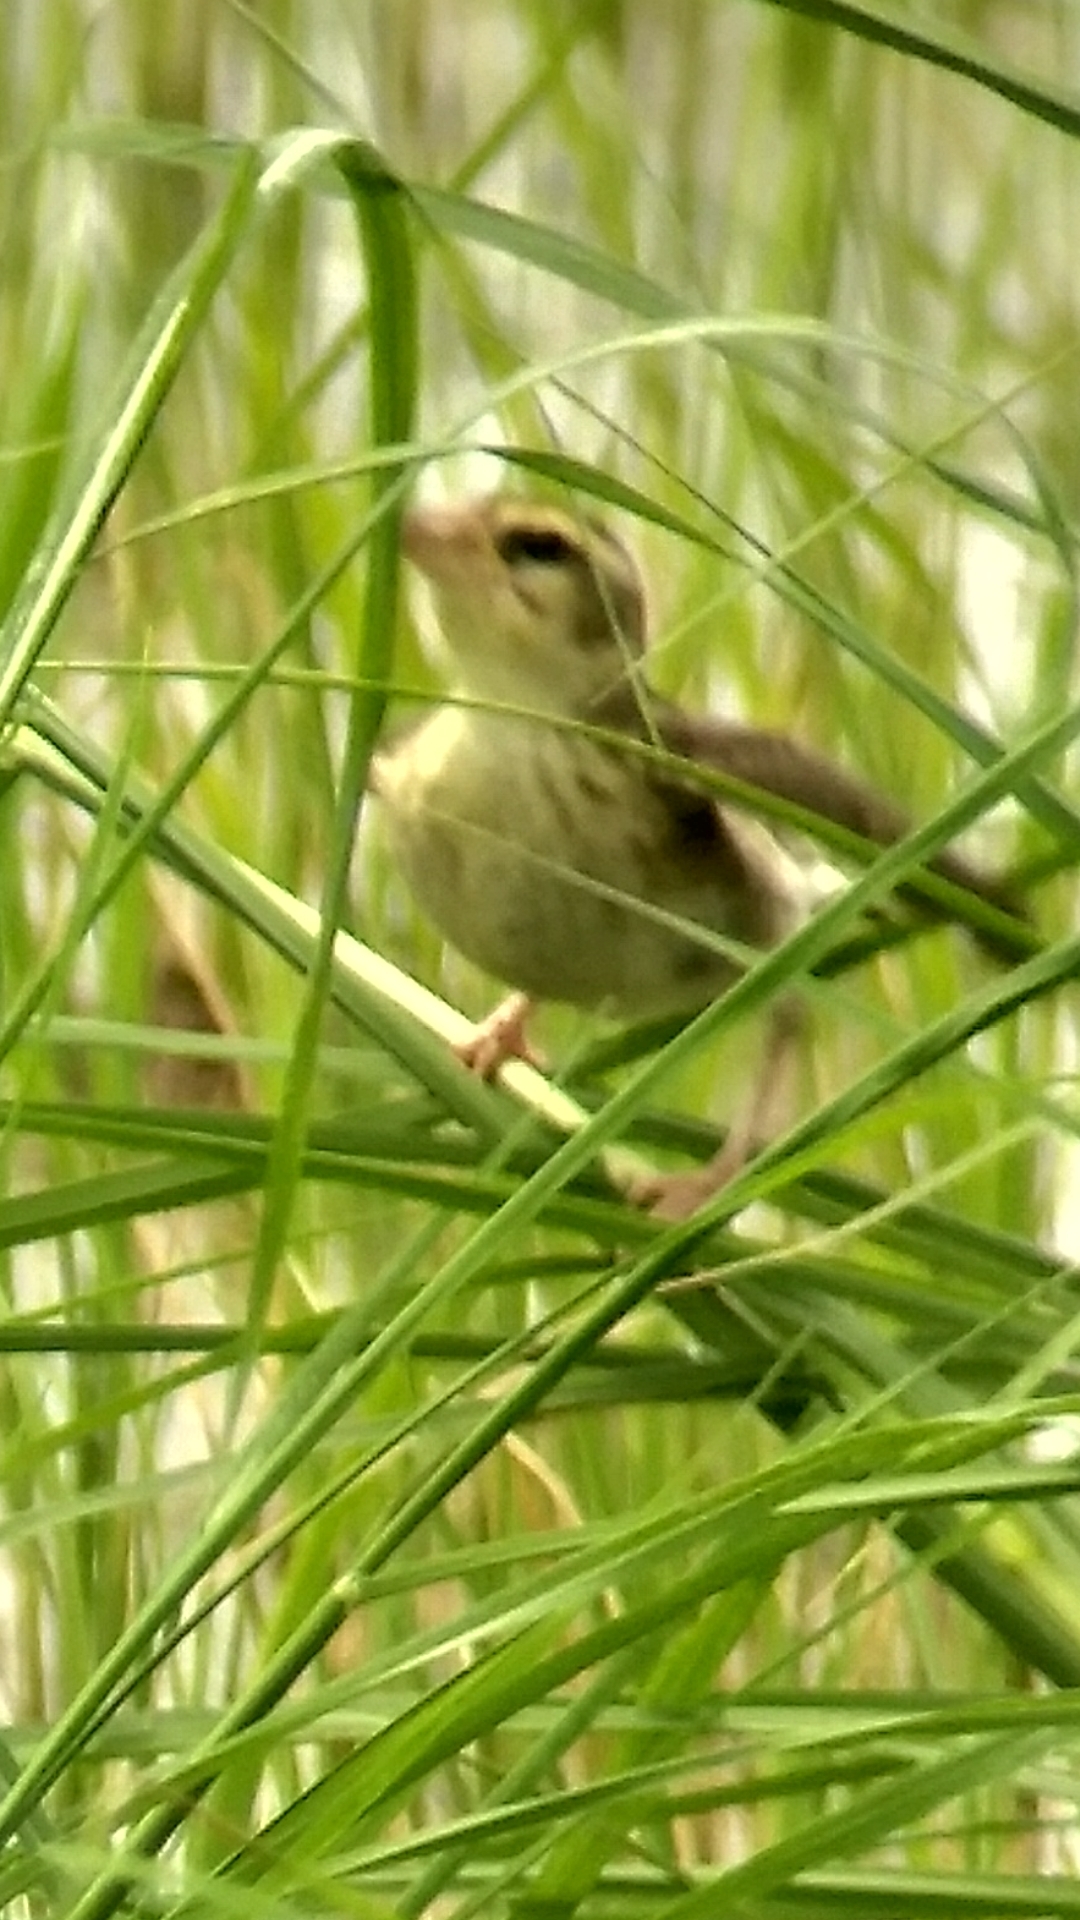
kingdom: Animalia
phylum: Chordata
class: Aves
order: Passeriformes
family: Ploceidae
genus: Ploceus
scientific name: Ploceus philippinus
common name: Baya weaver
